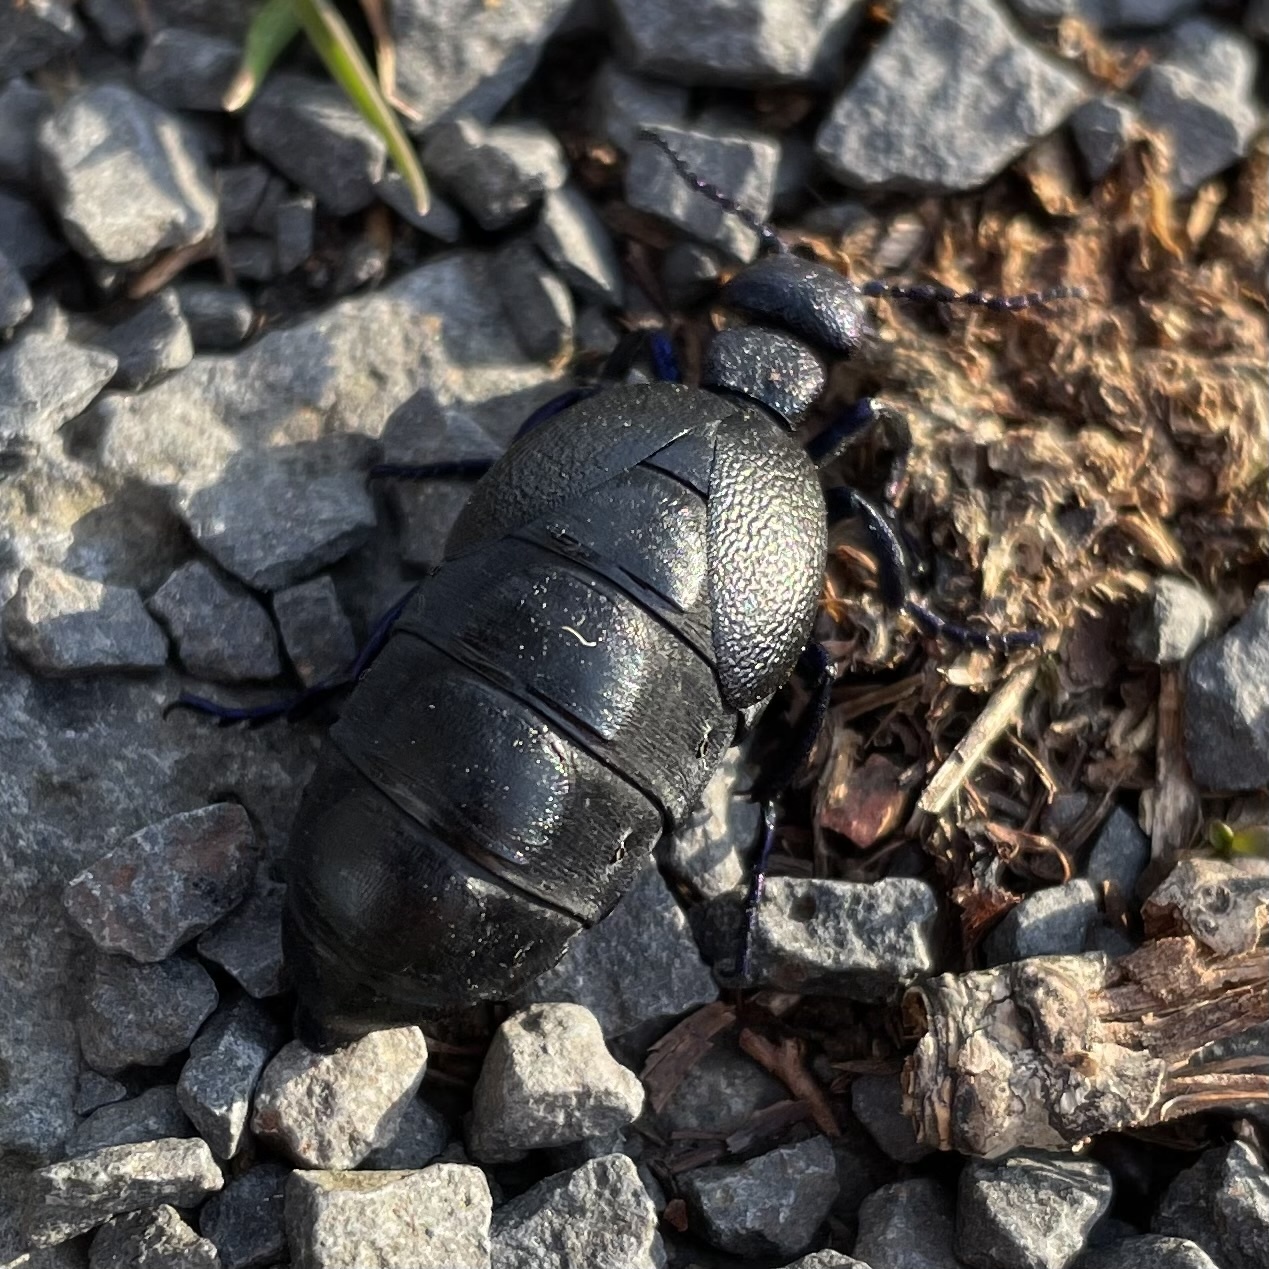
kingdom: Animalia
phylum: Arthropoda
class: Insecta
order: Coleoptera
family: Meloidae
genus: Meloe
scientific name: Meloe proscarabaeus
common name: Black oil-beetle
